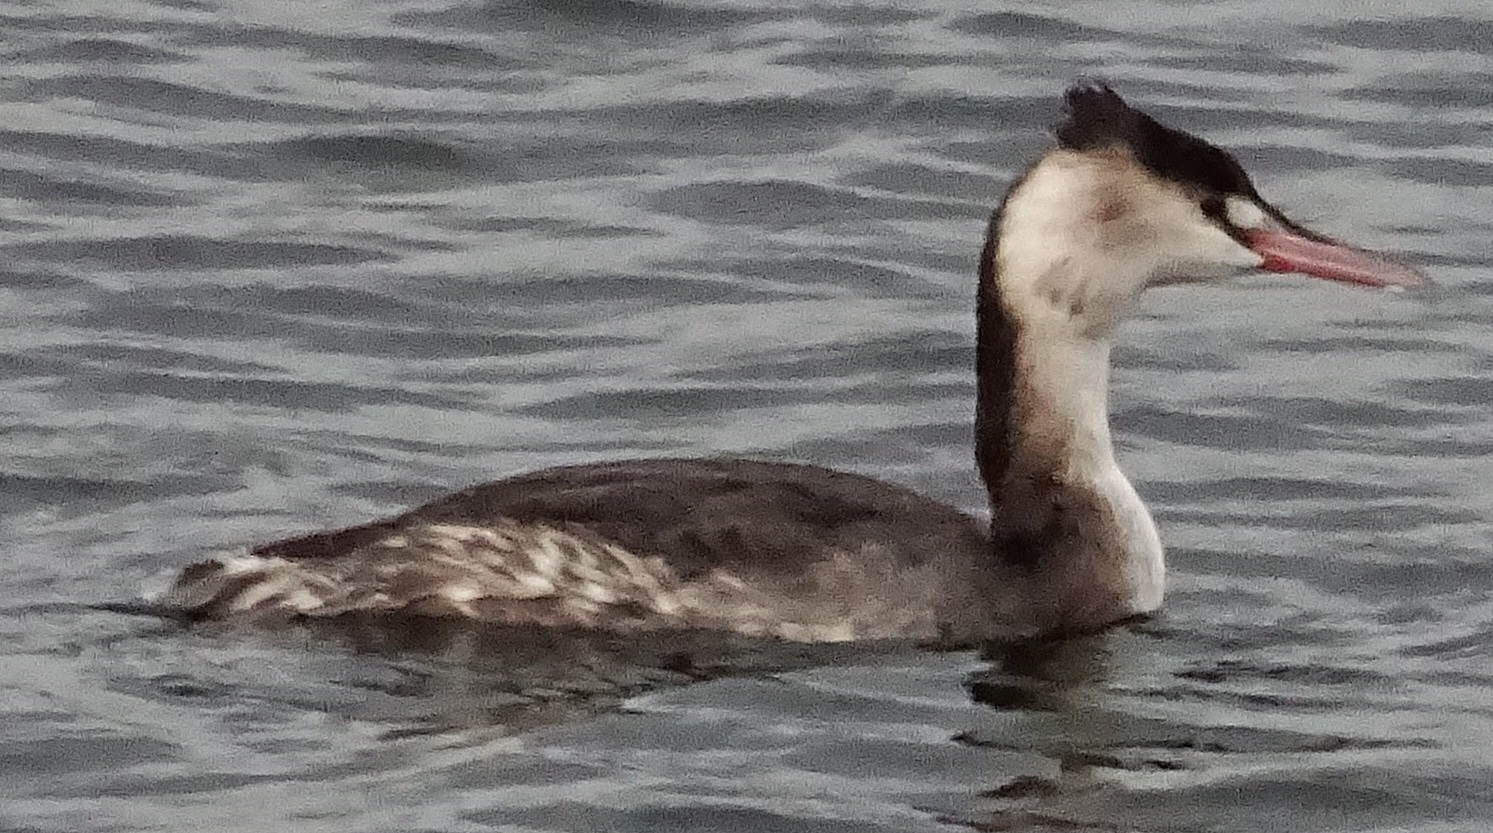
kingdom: Animalia
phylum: Chordata
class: Aves
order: Podicipediformes
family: Podicipedidae
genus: Podiceps
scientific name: Podiceps cristatus
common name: Great crested grebe
